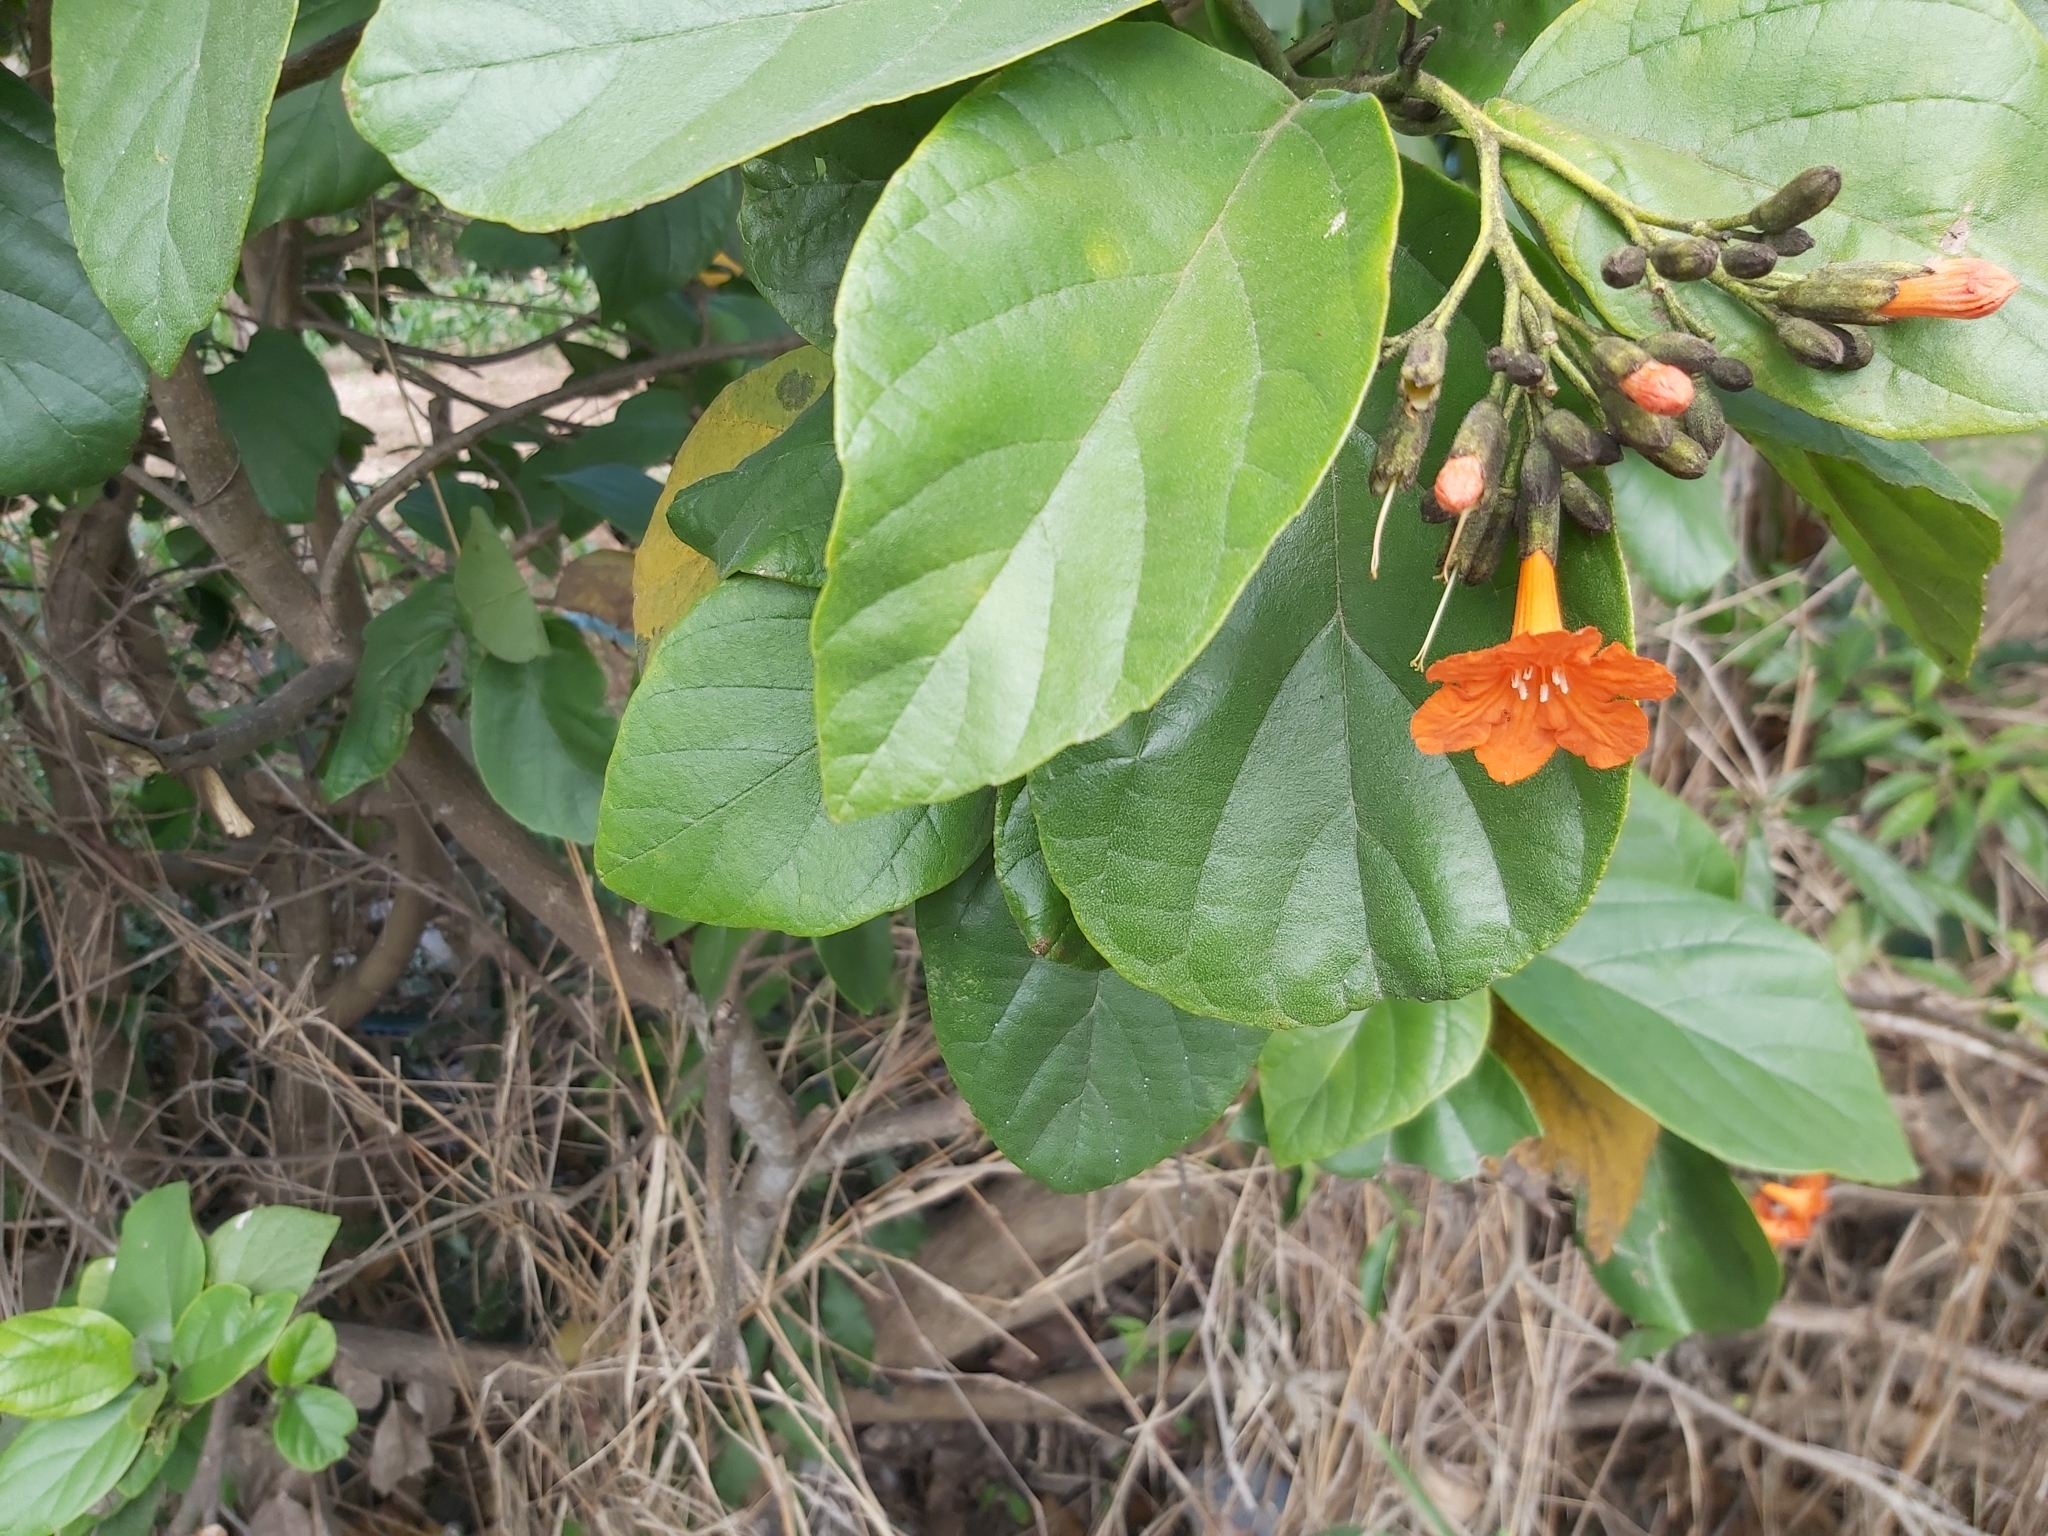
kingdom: Plantae
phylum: Tracheophyta
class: Magnoliopsida
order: Boraginales
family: Cordiaceae
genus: Cordia
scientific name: Cordia sebestena
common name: Largeleaf geigertree
